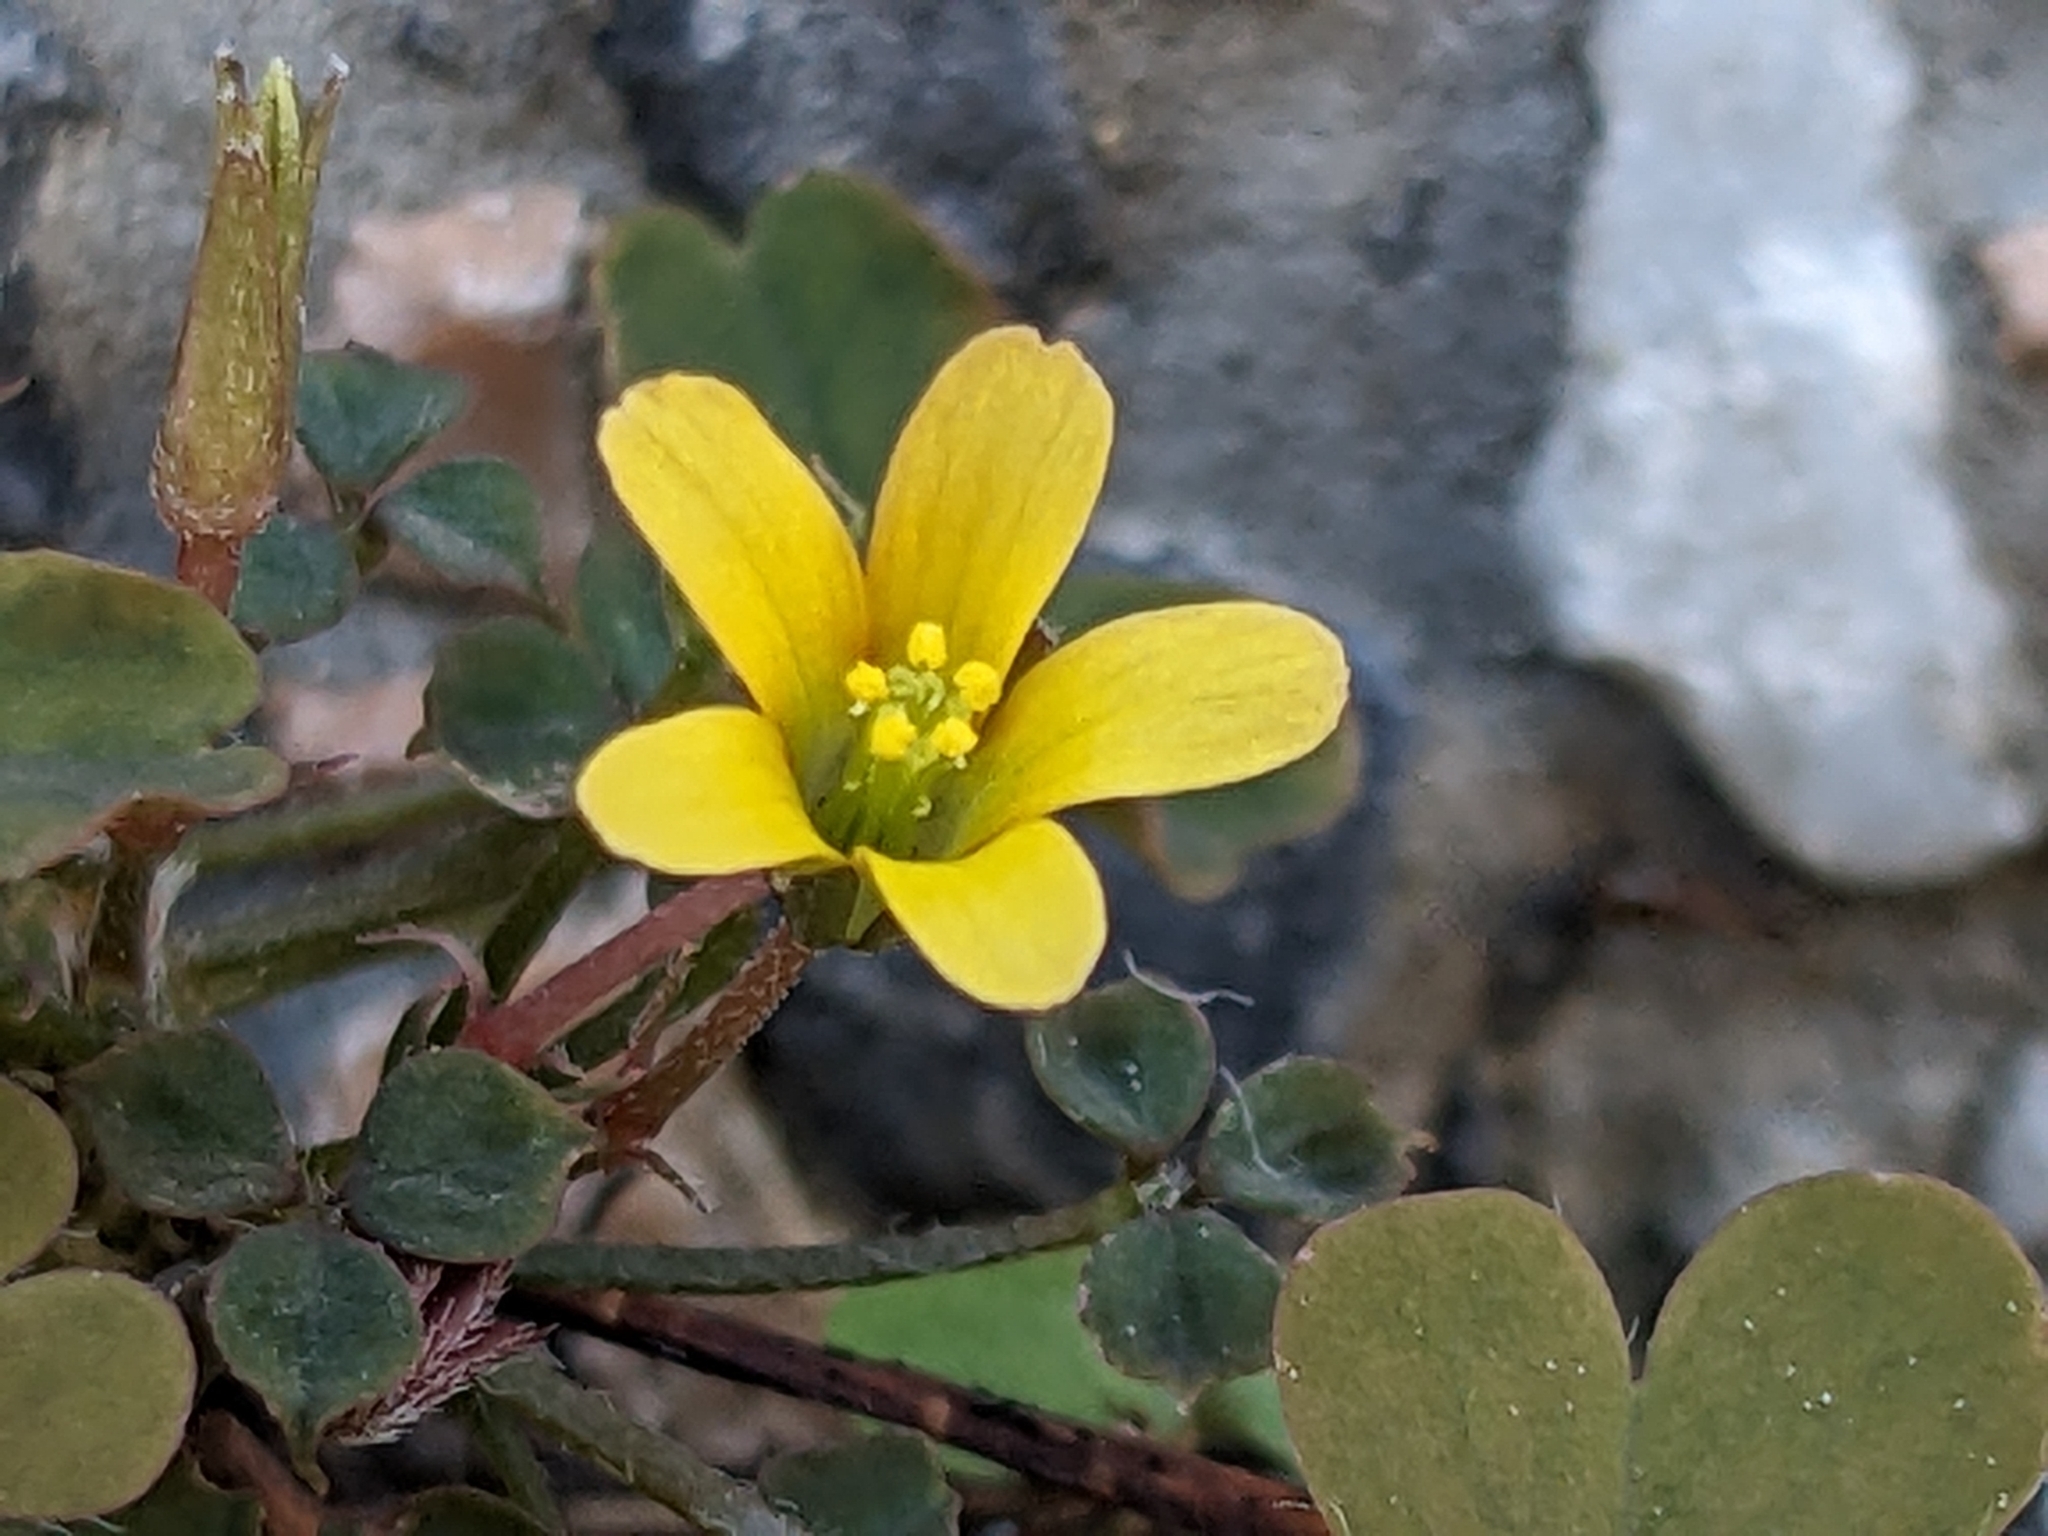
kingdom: Plantae
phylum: Tracheophyta
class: Magnoliopsida
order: Oxalidales
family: Oxalidaceae
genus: Oxalis
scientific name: Oxalis corniculata
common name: Procumbent yellow-sorrel
